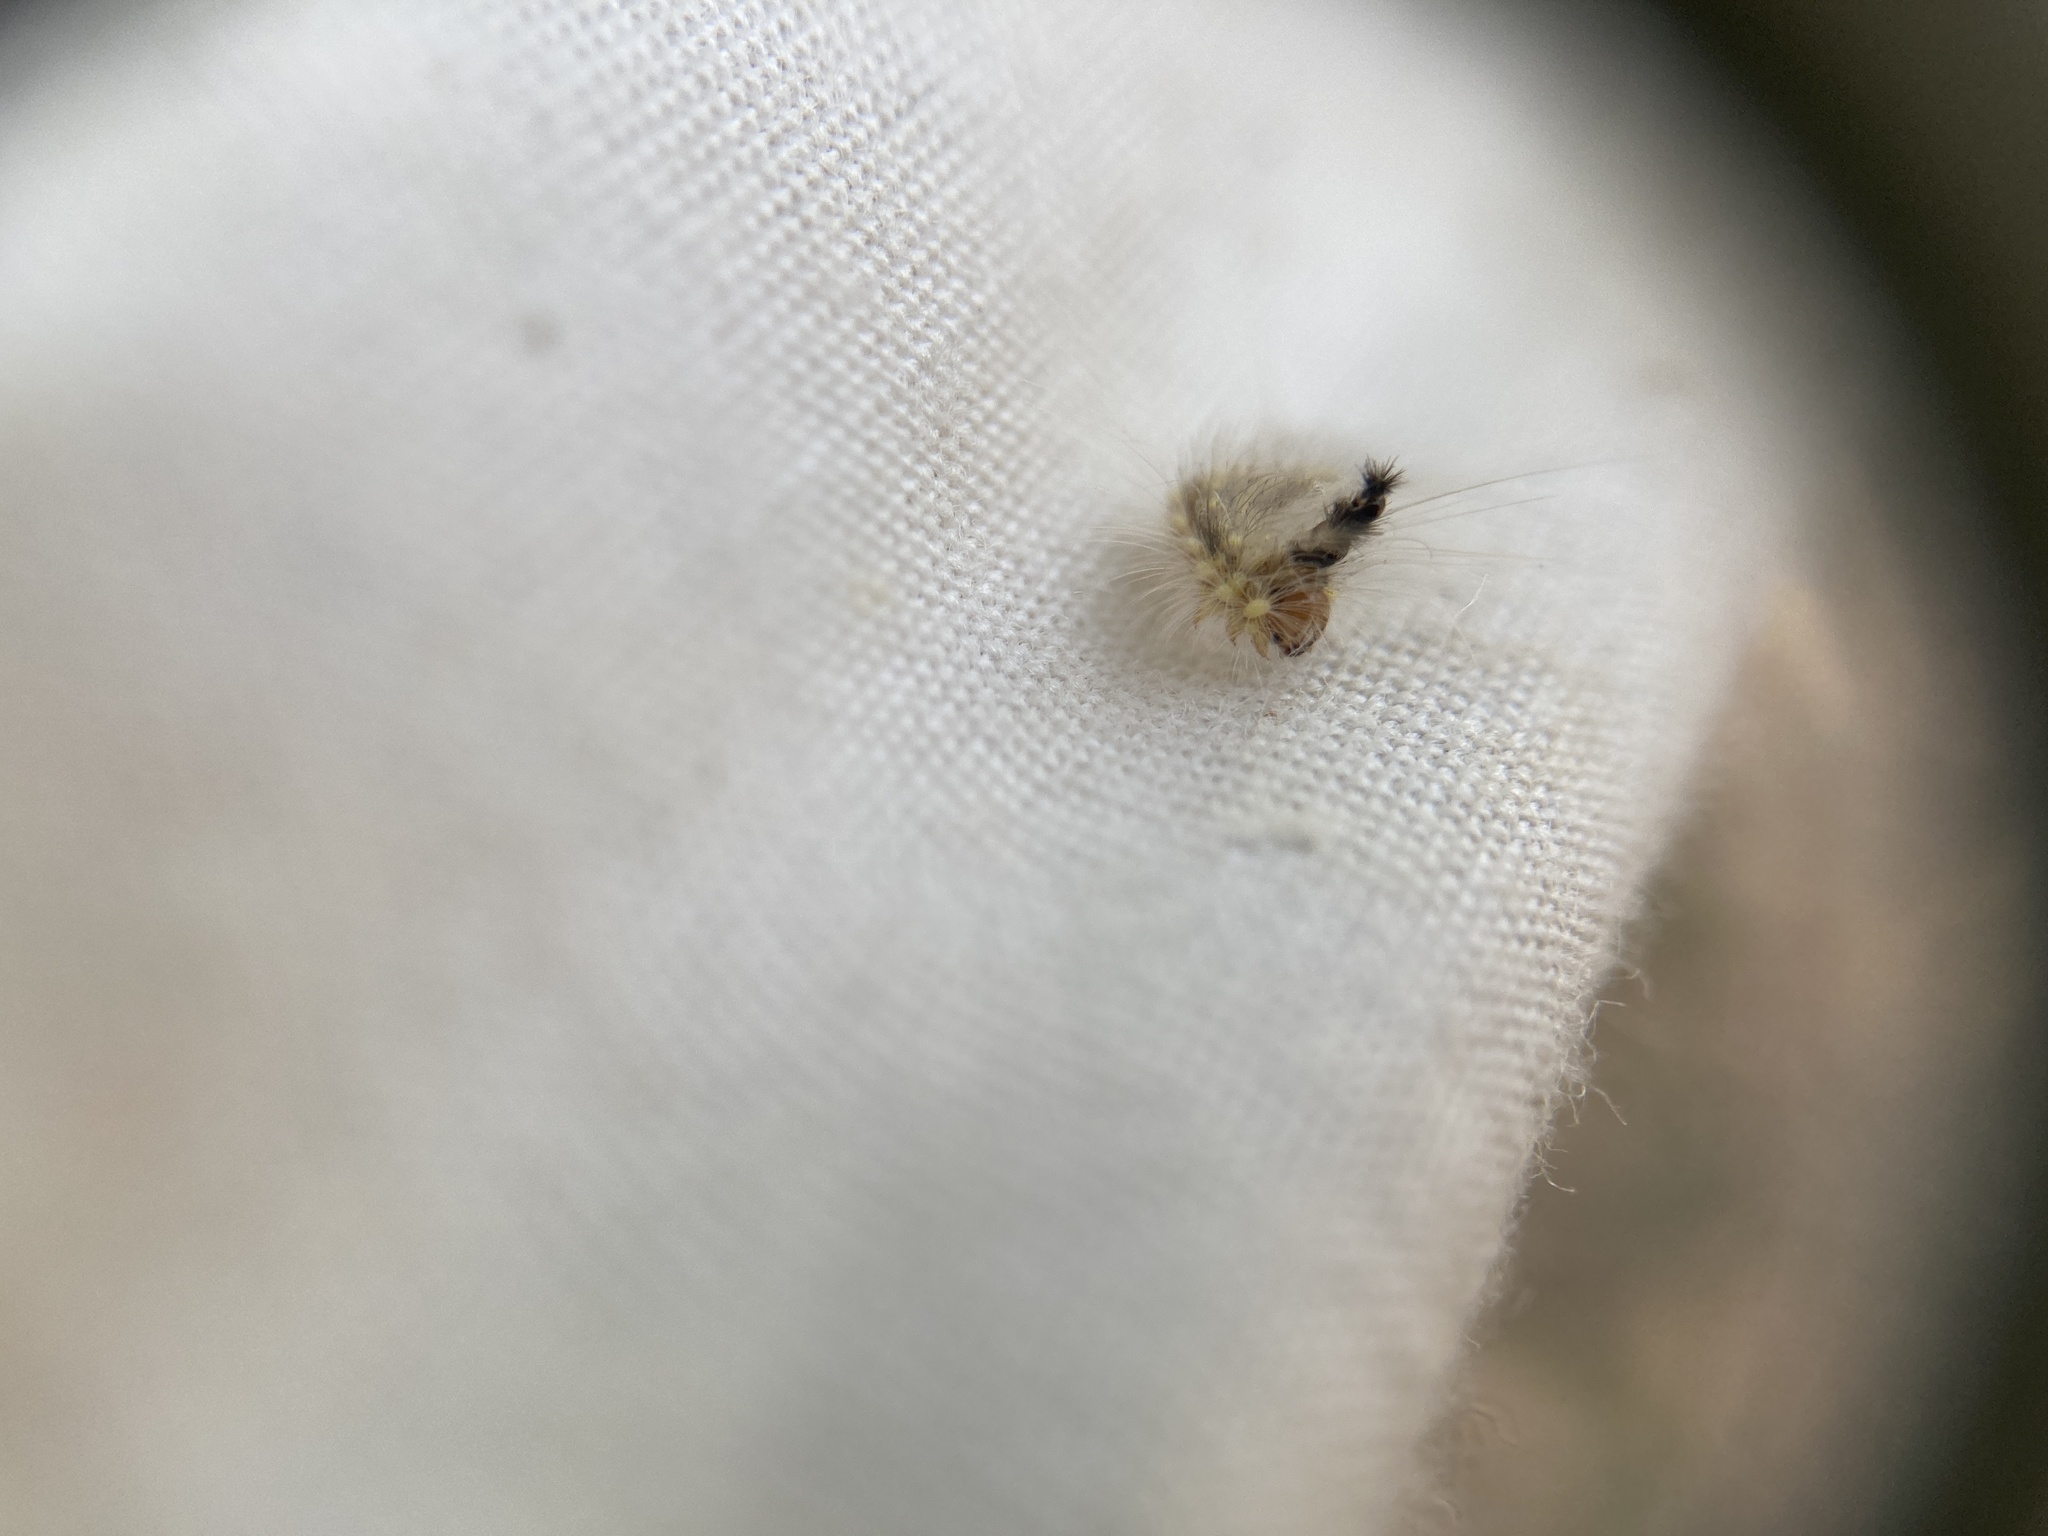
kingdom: Animalia
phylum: Arthropoda
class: Insecta
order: Lepidoptera
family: Nolidae
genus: Uraba
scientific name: Uraba lugens
